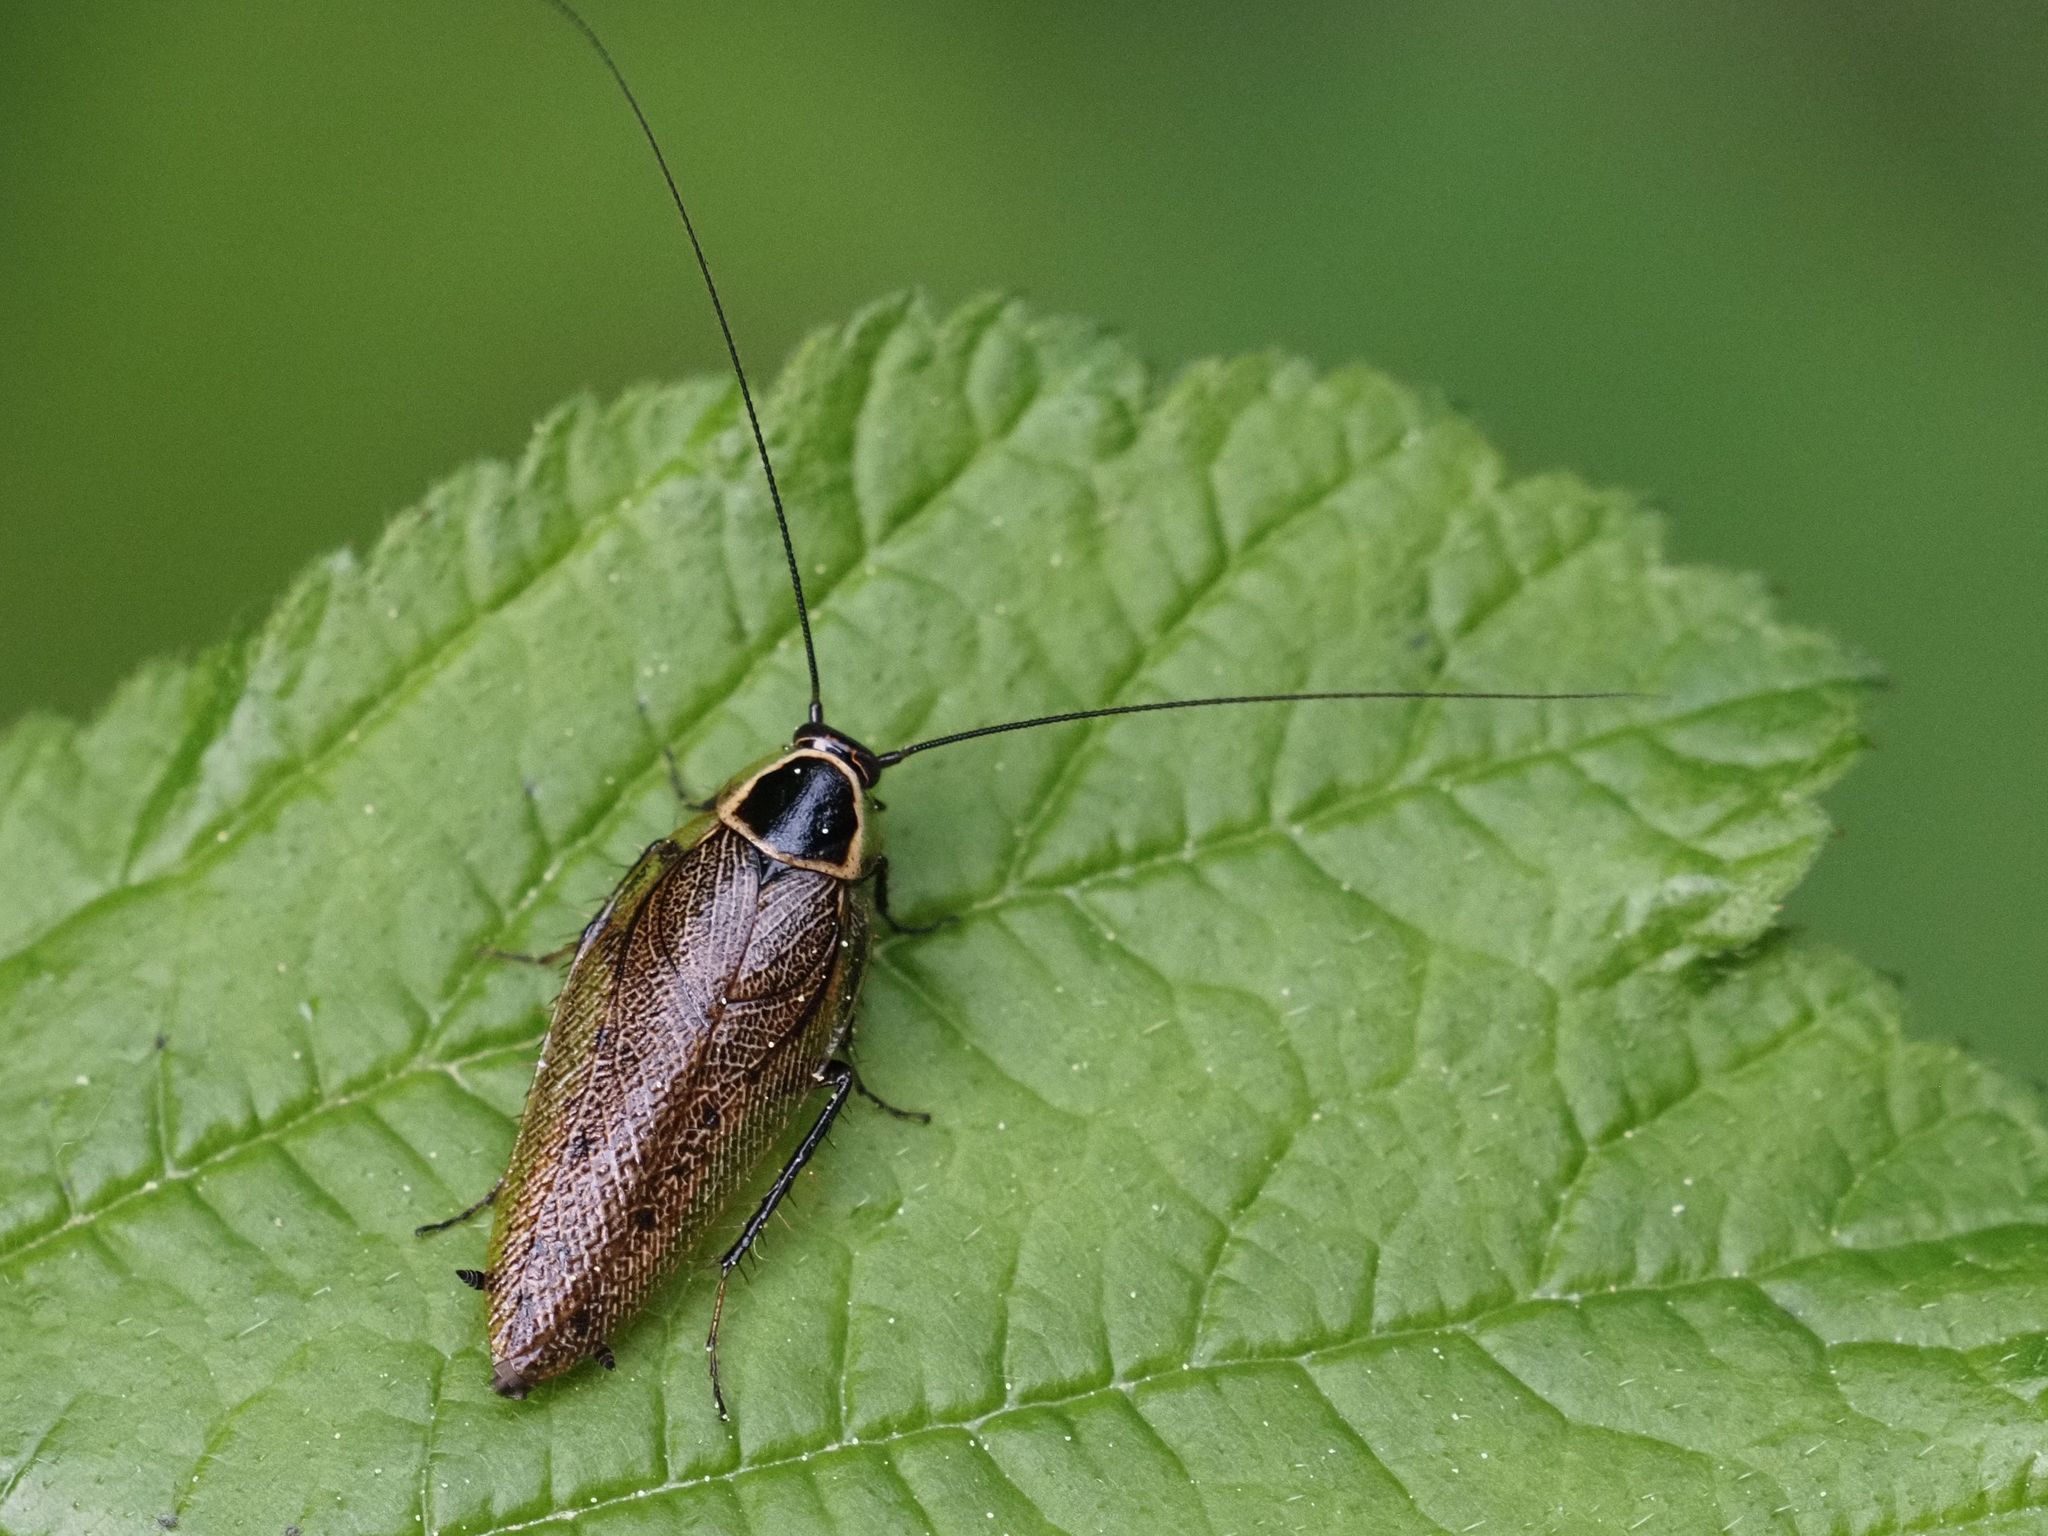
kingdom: Animalia
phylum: Arthropoda
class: Insecta
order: Blattodea
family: Ectobiidae
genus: Ectobius
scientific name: Ectobius sylvestris
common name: Forest cockroach
